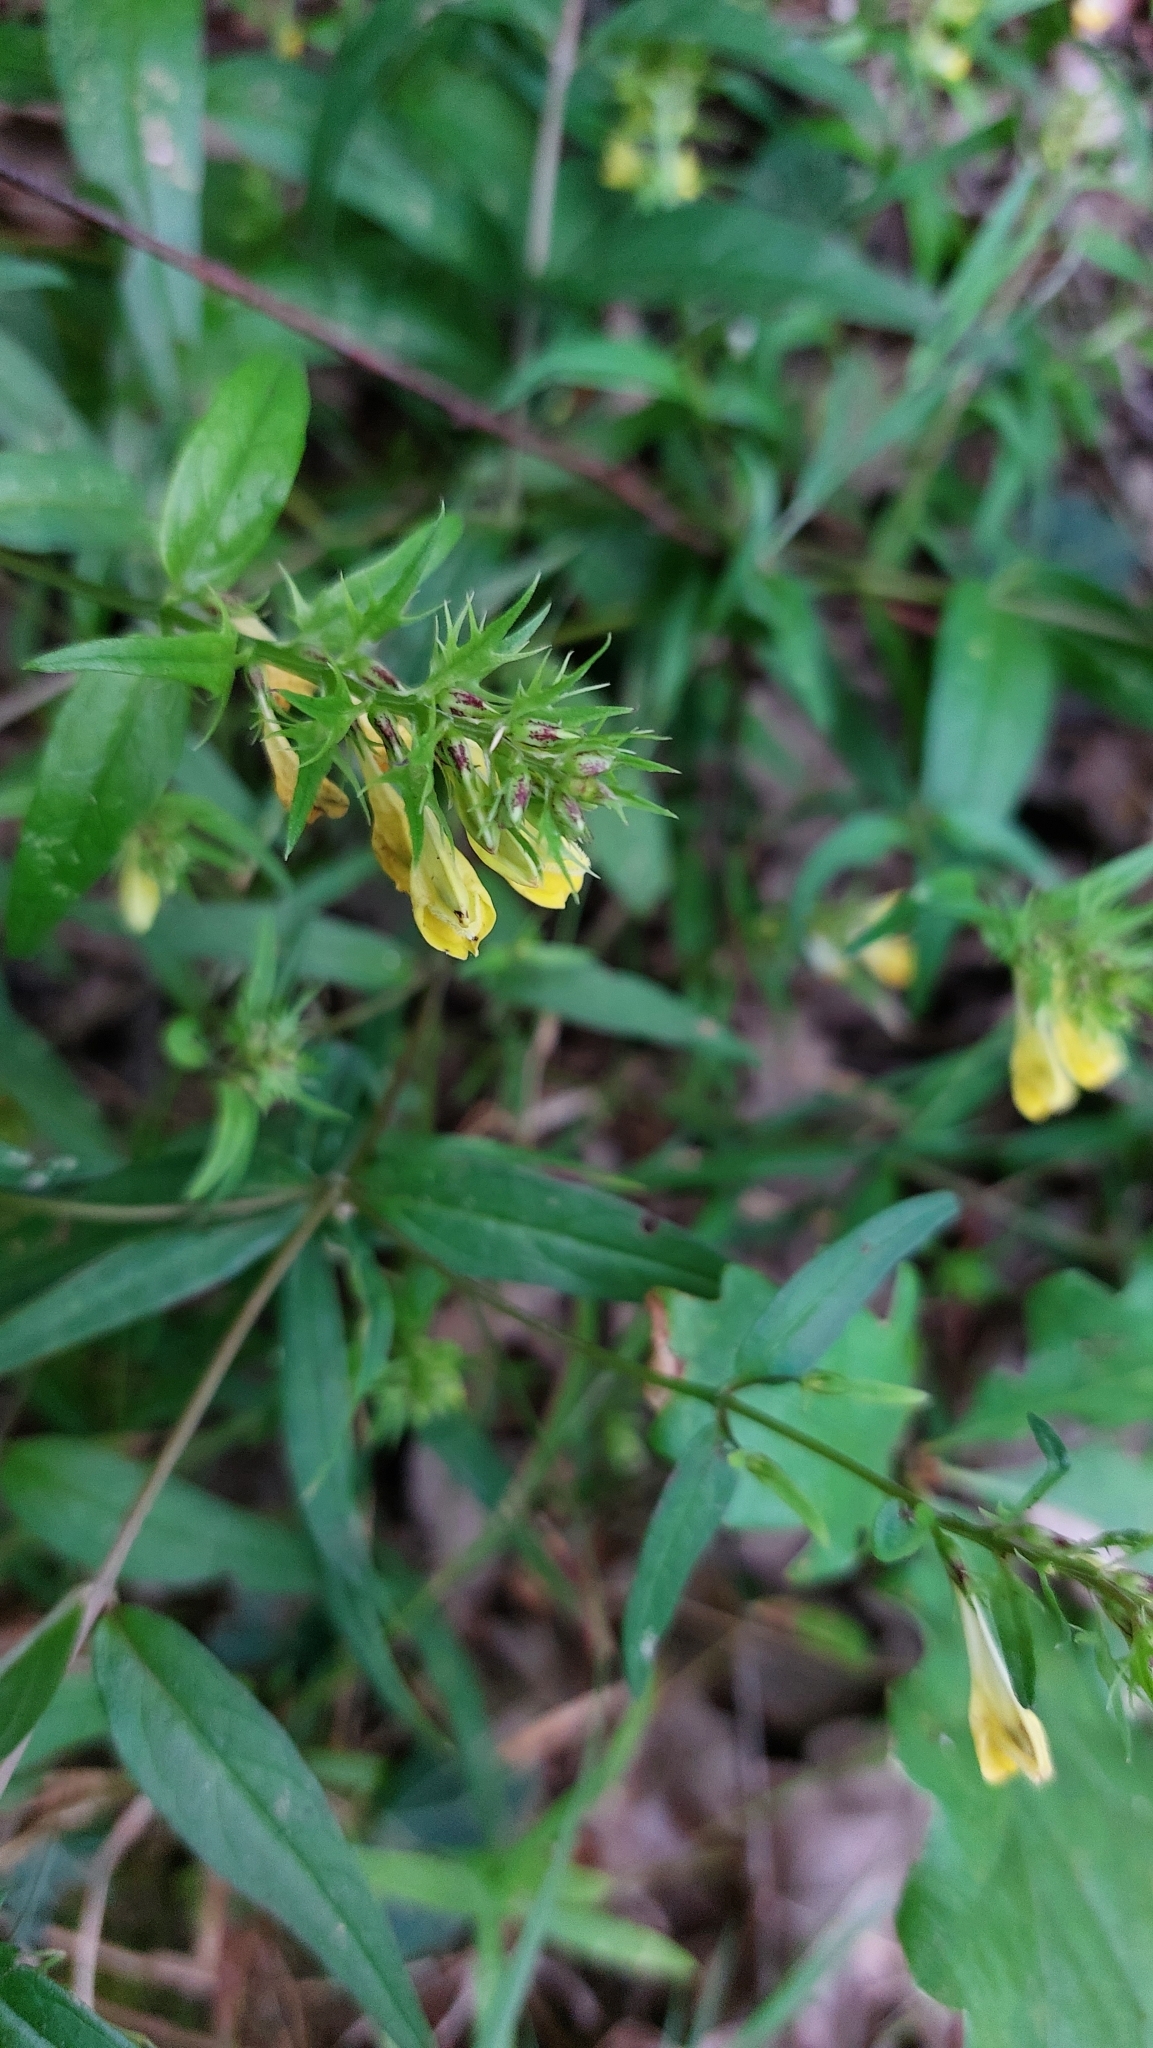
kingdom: Plantae
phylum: Tracheophyta
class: Magnoliopsida
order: Lamiales
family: Orobanchaceae
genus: Melampyrum
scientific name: Melampyrum pratense
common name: Common cow-wheat
